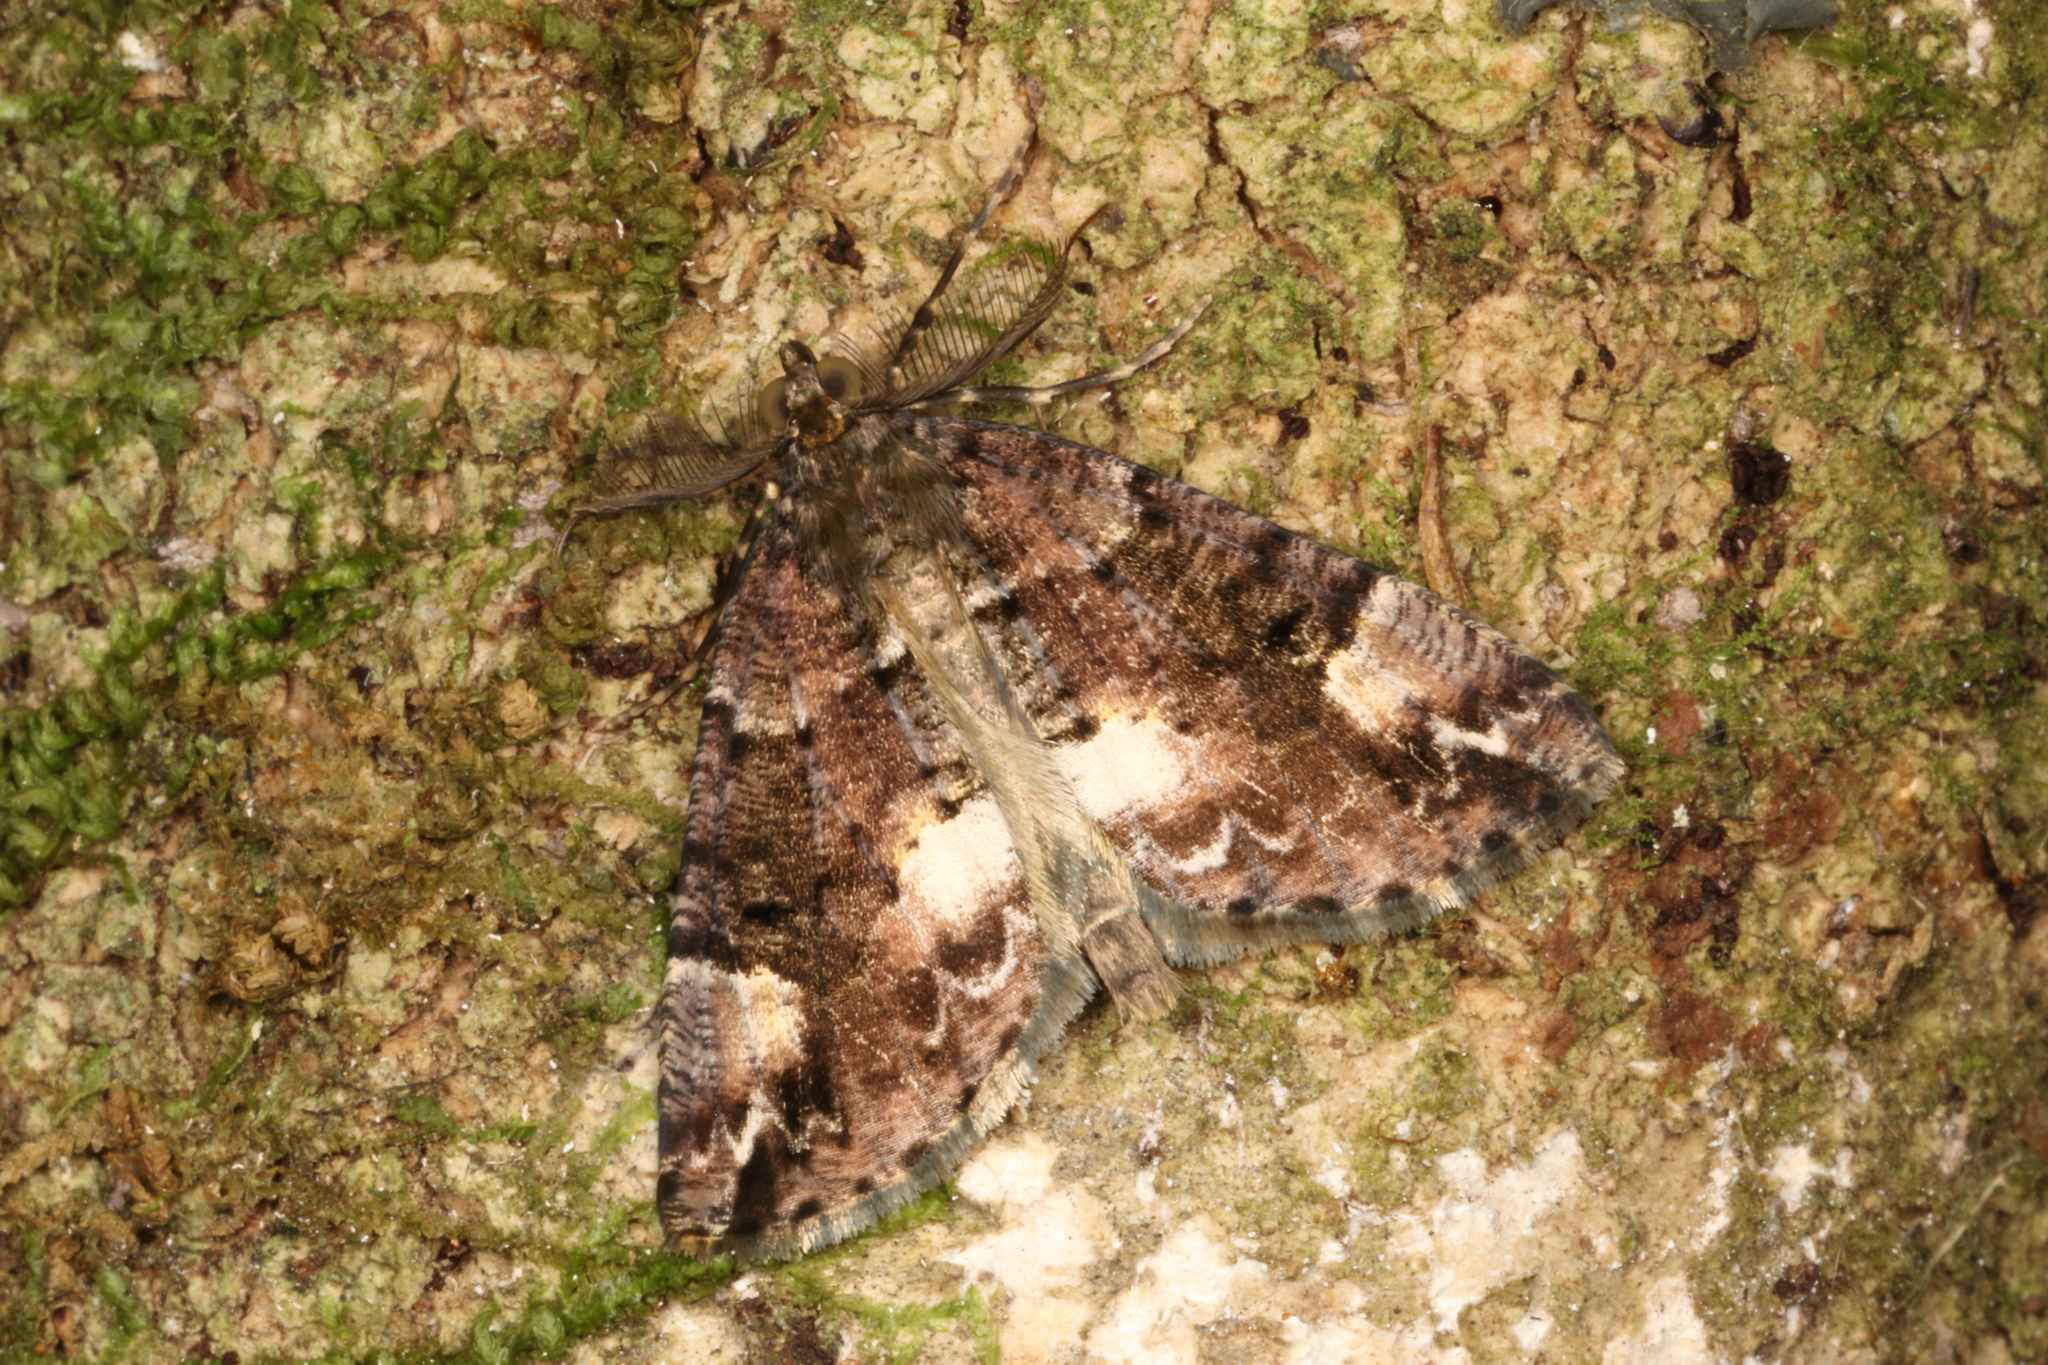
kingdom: Animalia
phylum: Arthropoda
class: Insecta
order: Lepidoptera
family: Geometridae
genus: Pseudocoremia
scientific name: Pseudocoremia productata
